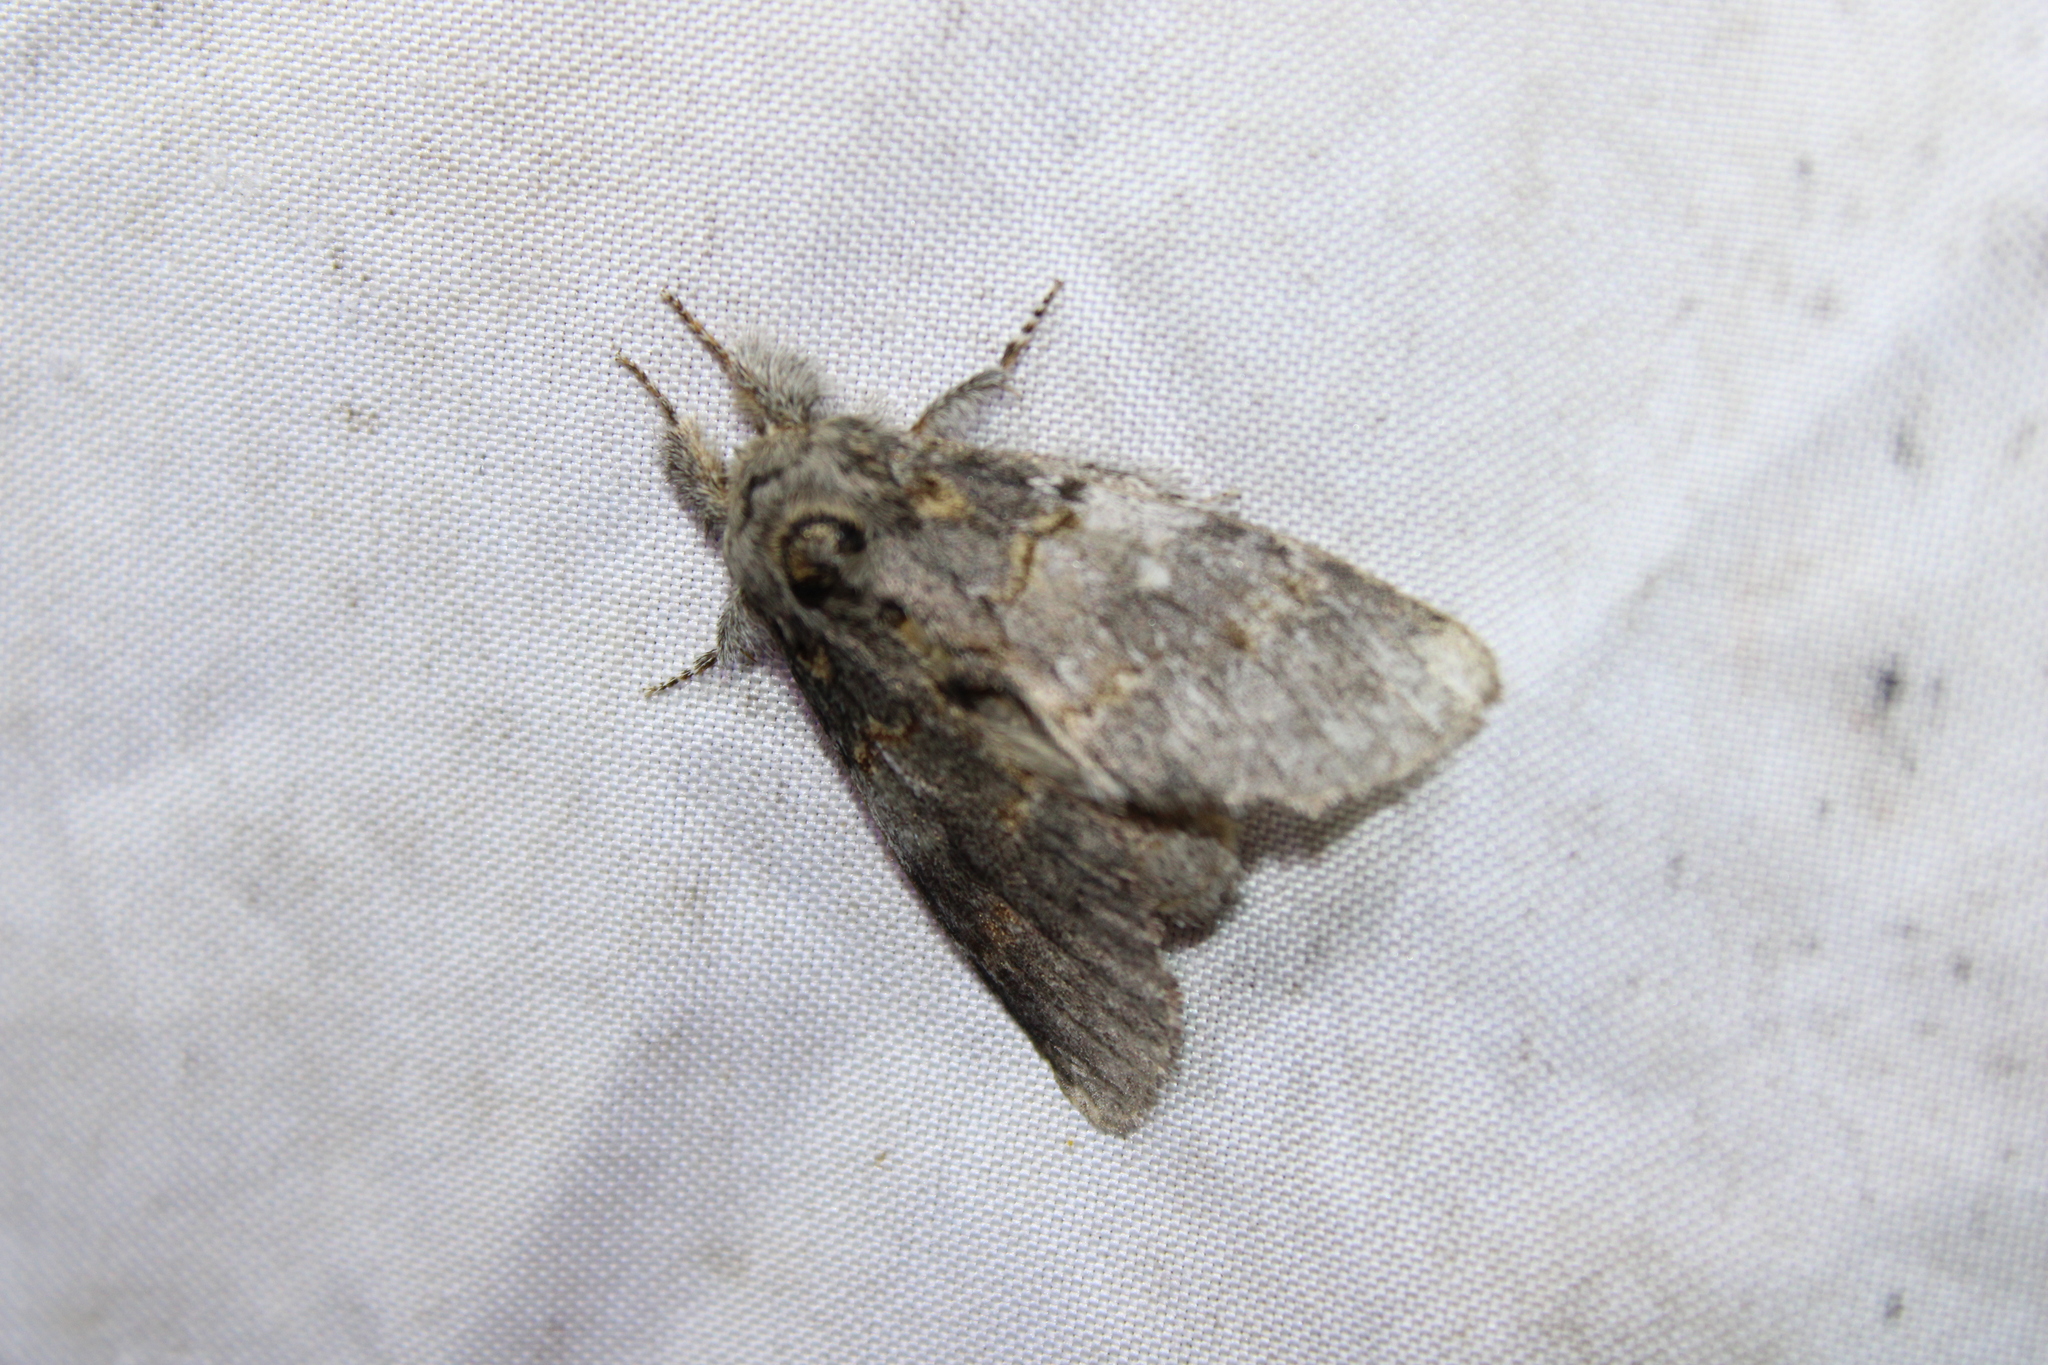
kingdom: Animalia
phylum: Arthropoda
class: Insecta
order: Lepidoptera
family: Notodontidae
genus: Peridea
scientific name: Peridea angulosa
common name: Angulose prominent
